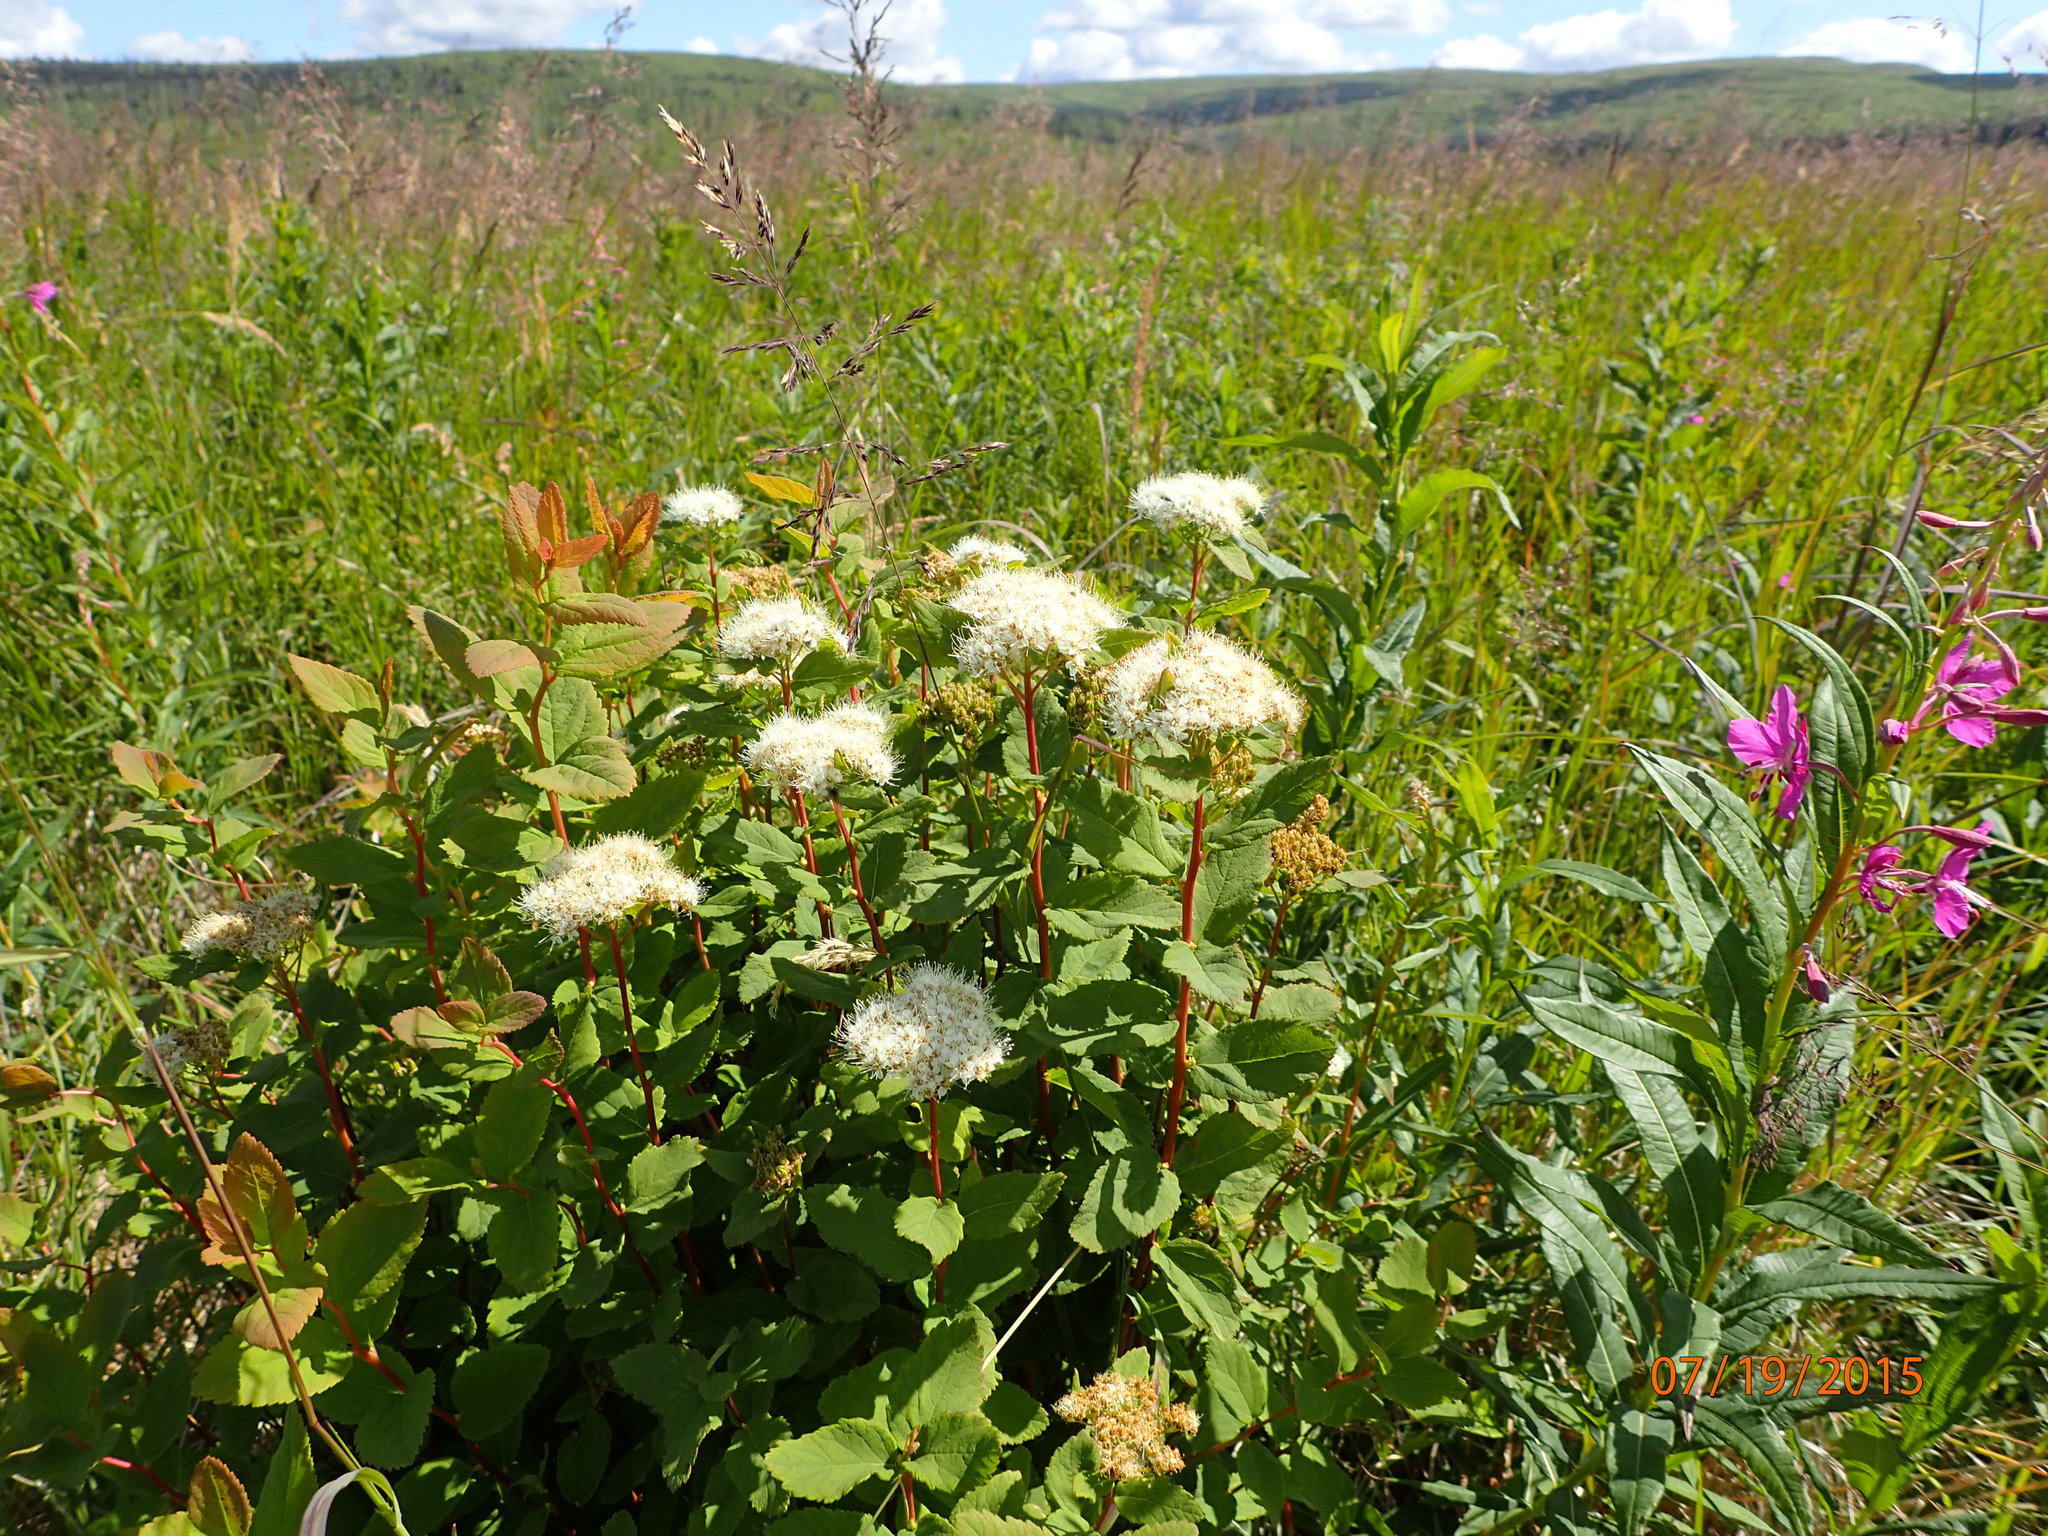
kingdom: Plantae
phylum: Tracheophyta
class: Magnoliopsida
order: Rosales
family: Rosaceae
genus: Spiraea
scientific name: Spiraea stevenii
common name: Steven's meadowsweet
